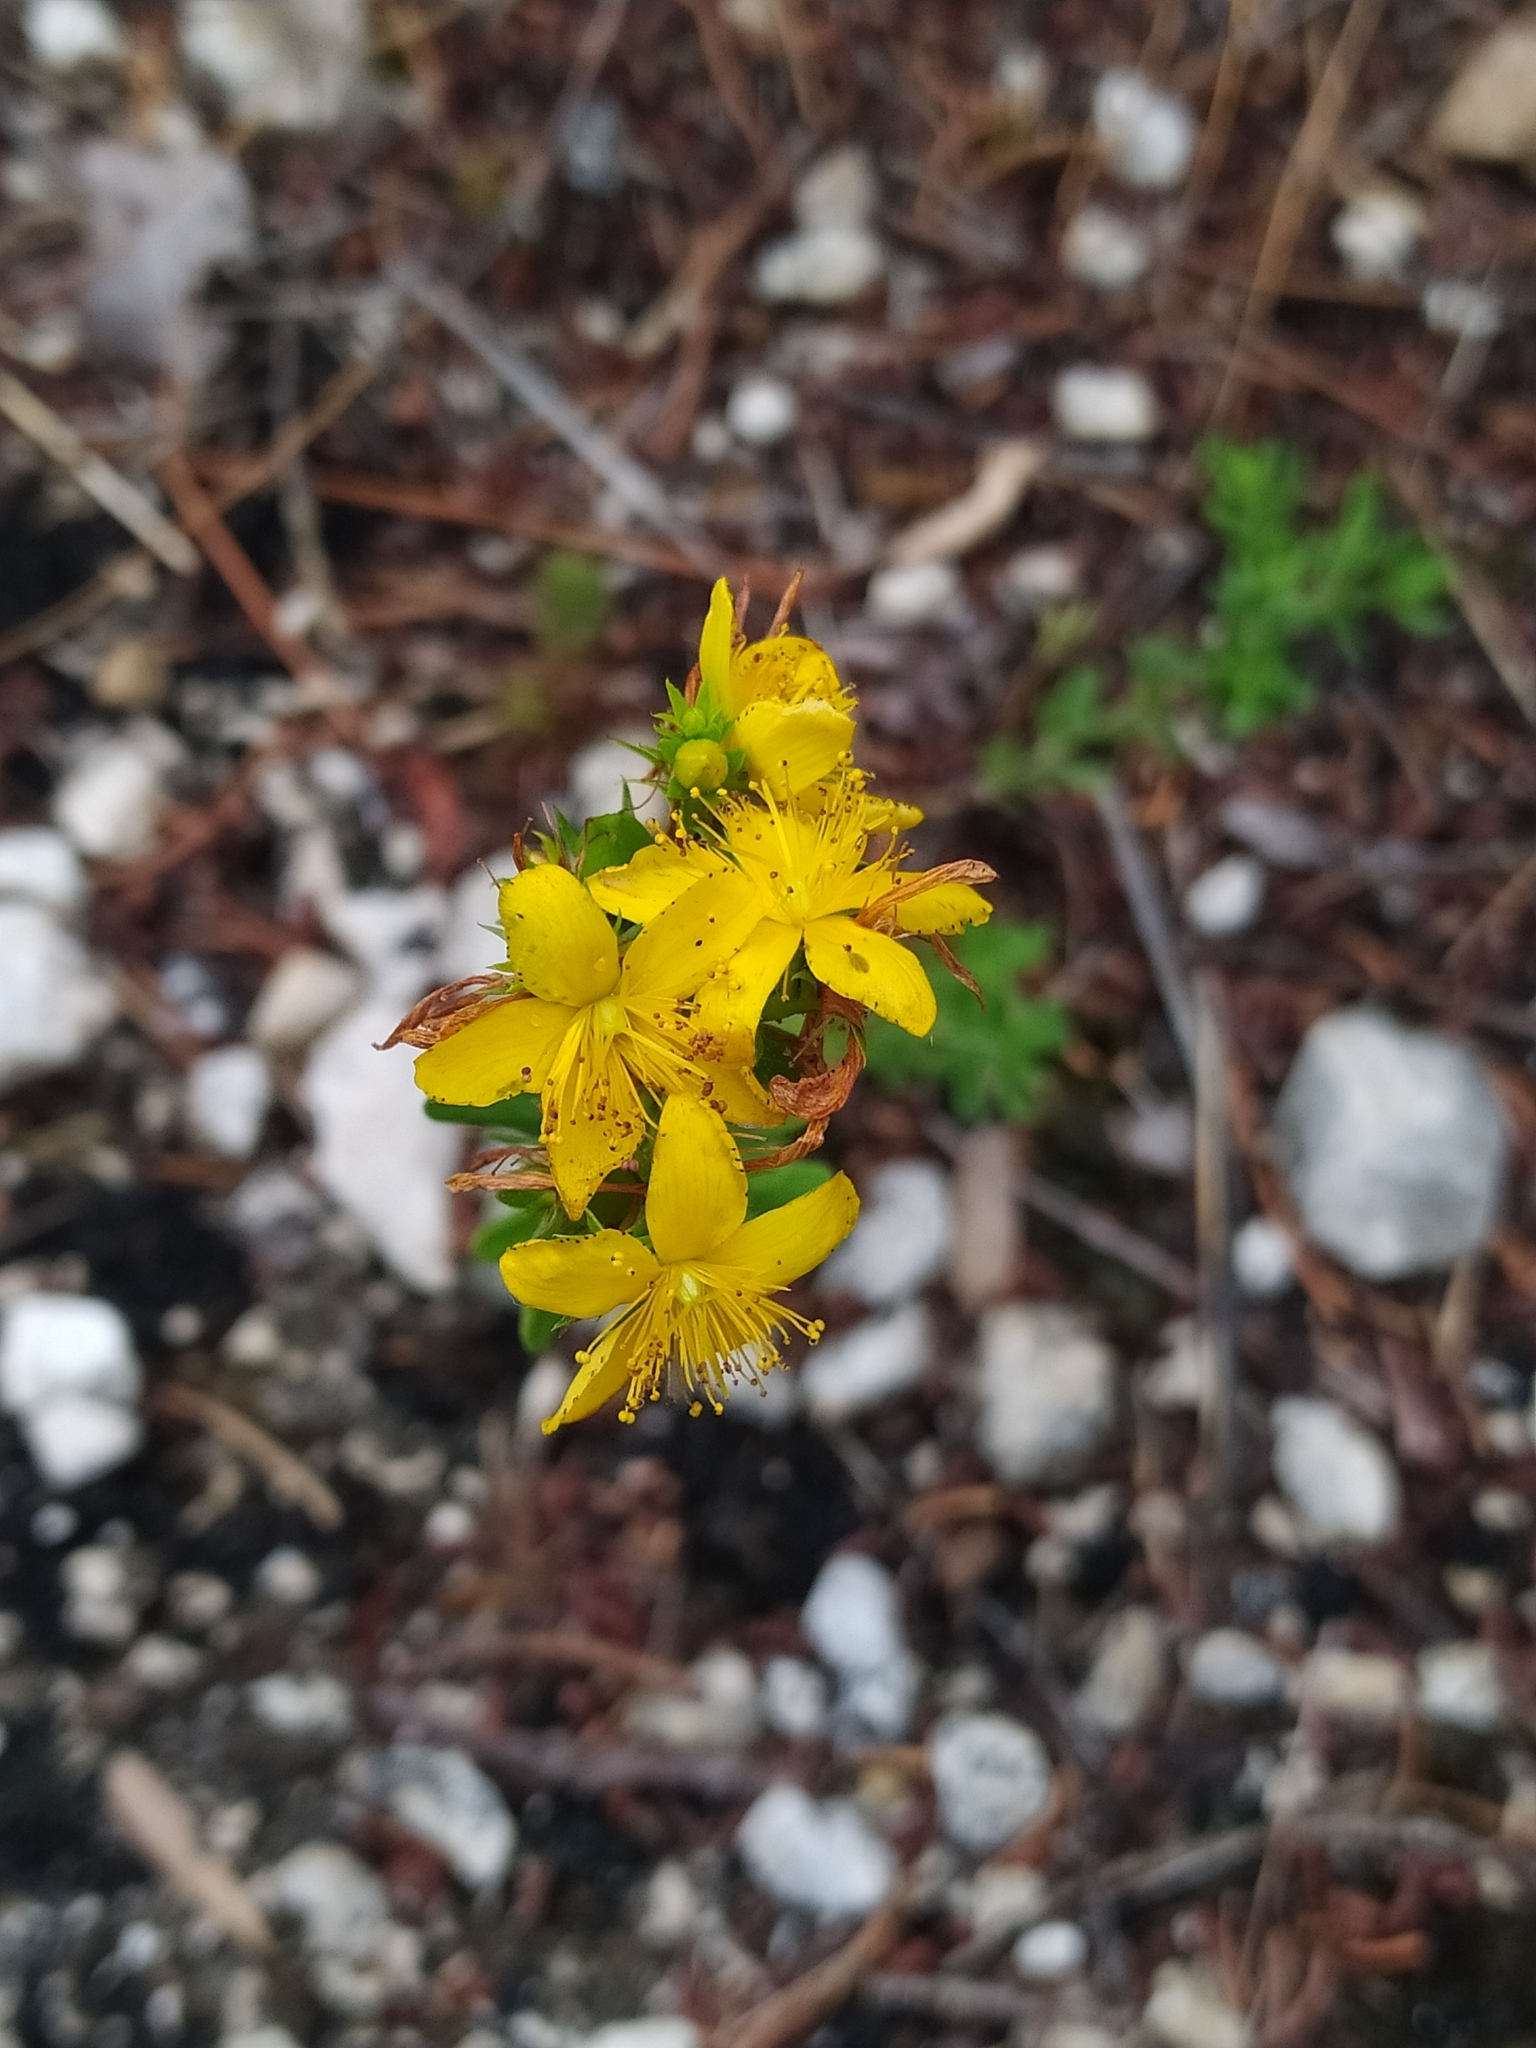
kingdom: Plantae
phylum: Tracheophyta
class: Magnoliopsida
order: Malpighiales
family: Hypericaceae
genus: Hypericum
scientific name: Hypericum perforatum
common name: Common st. johnswort
